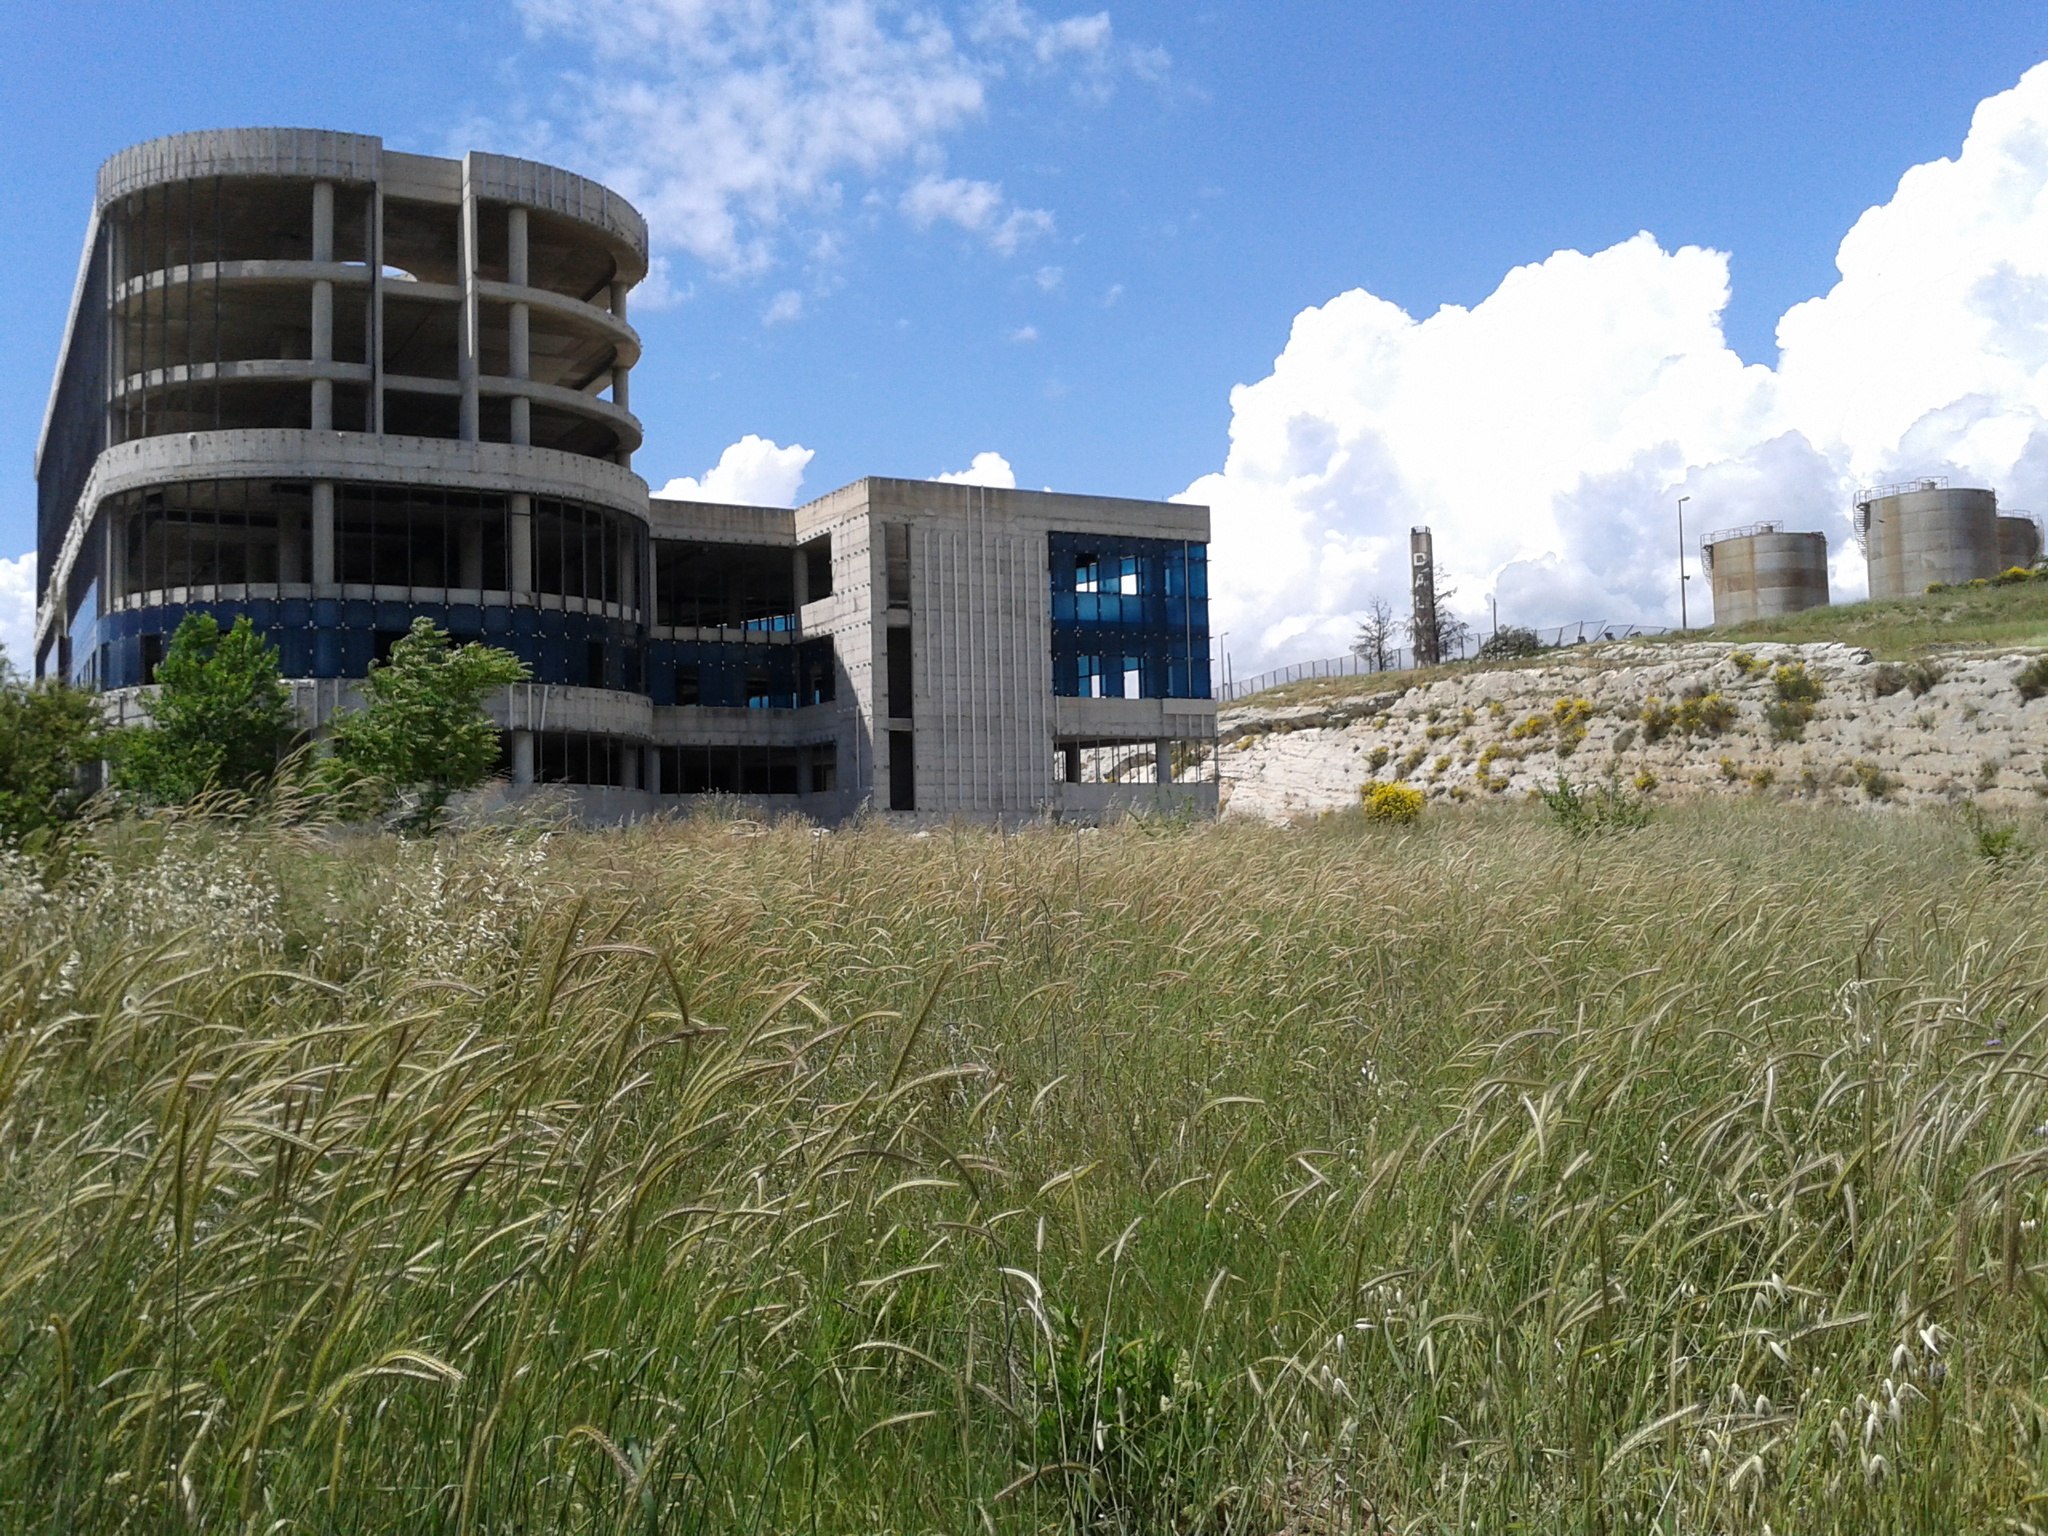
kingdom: Plantae
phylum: Tracheophyta
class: Liliopsida
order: Poales
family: Poaceae
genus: Hordeum
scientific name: Hordeum bulbosum
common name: Bulbous barley
